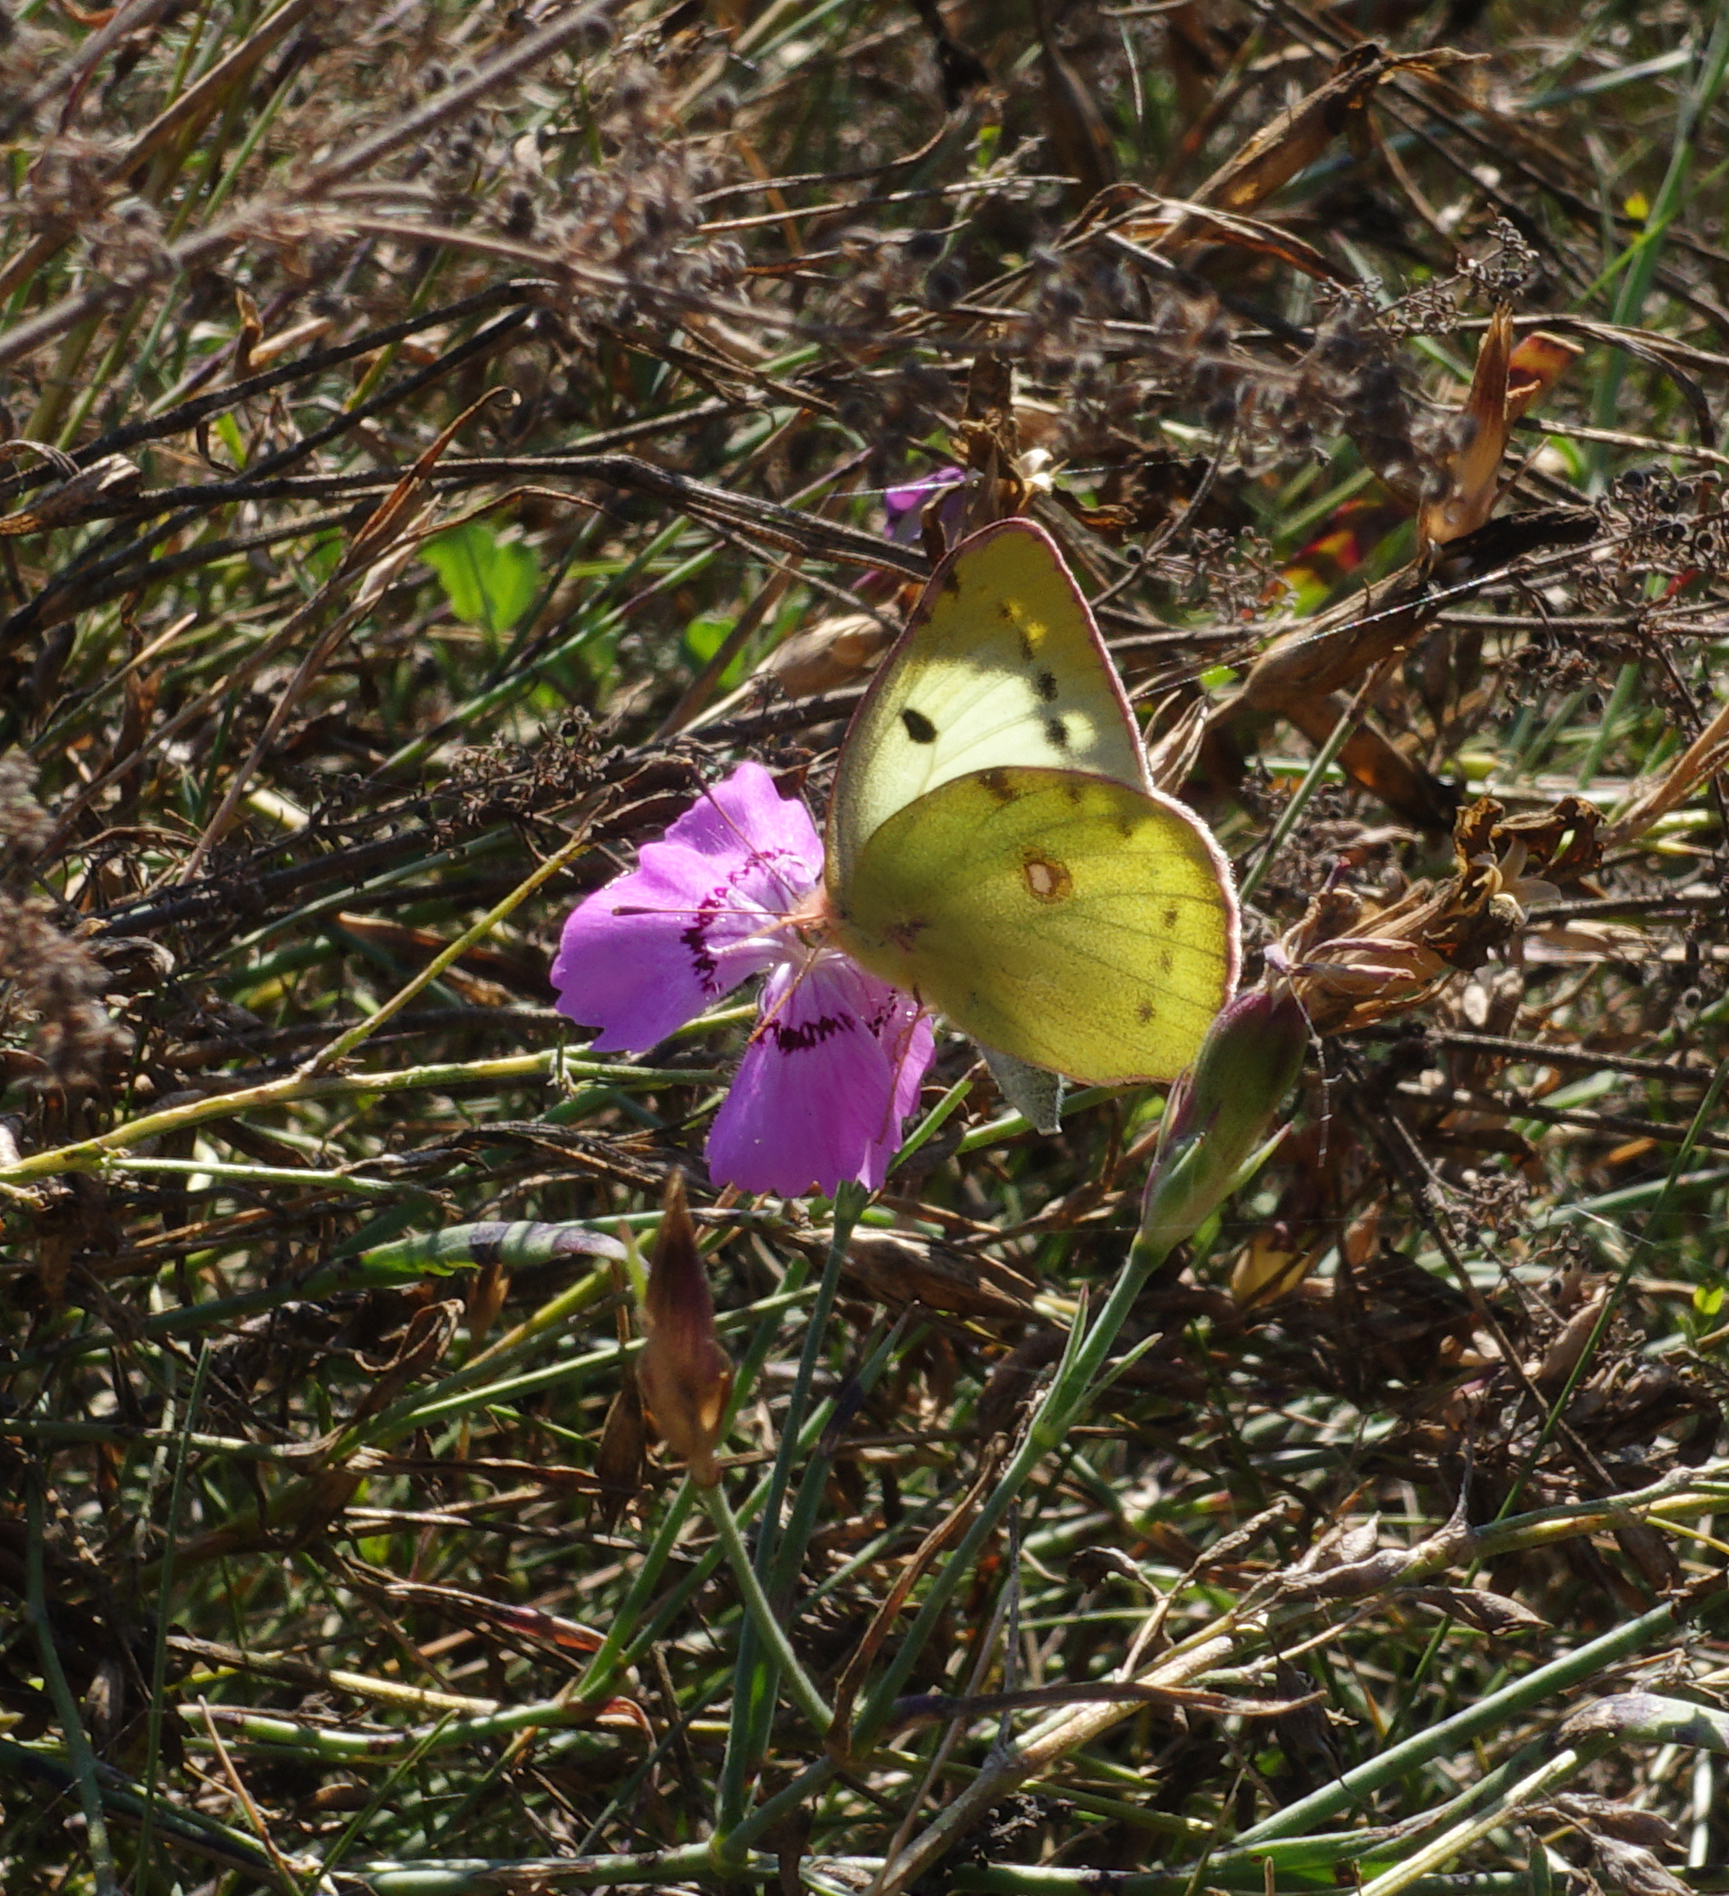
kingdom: Animalia
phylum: Arthropoda
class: Insecta
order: Lepidoptera
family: Pieridae
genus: Colias
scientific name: Colias hyale
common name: Pale clouded yellow
